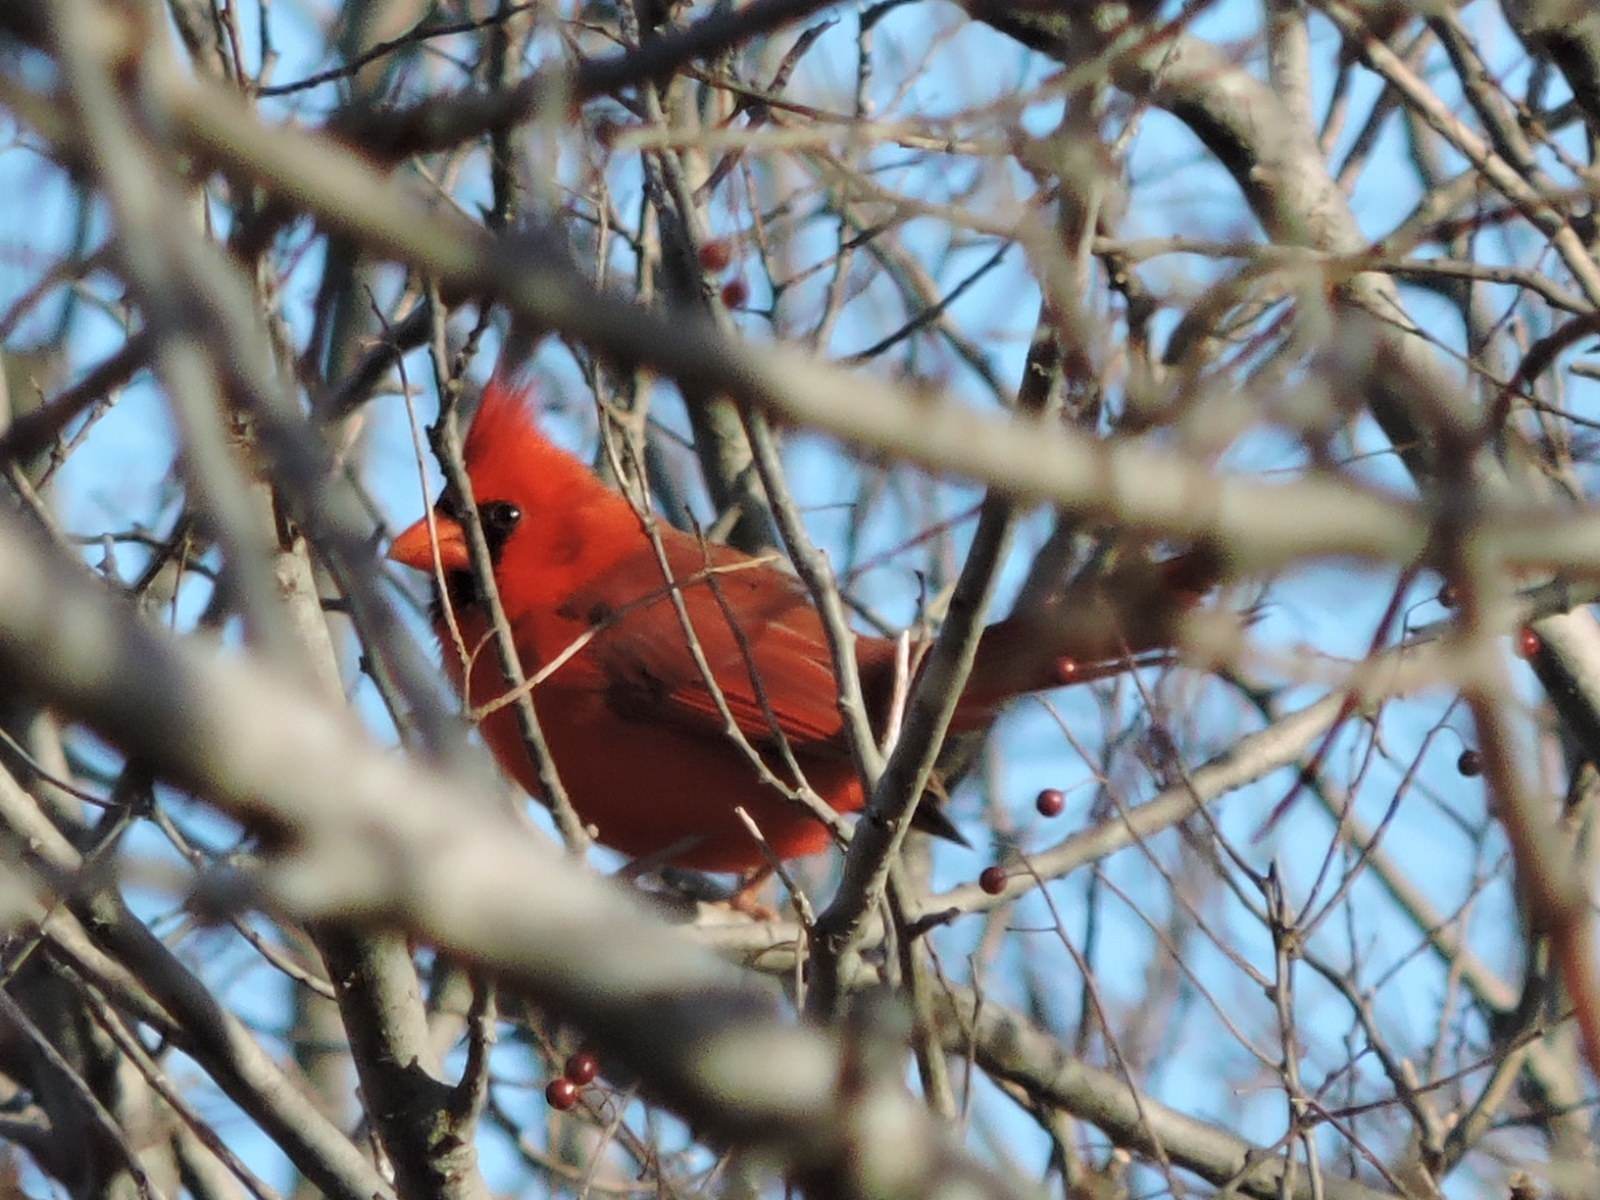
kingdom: Animalia
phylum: Chordata
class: Aves
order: Passeriformes
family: Cardinalidae
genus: Cardinalis
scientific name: Cardinalis cardinalis
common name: Northern cardinal
